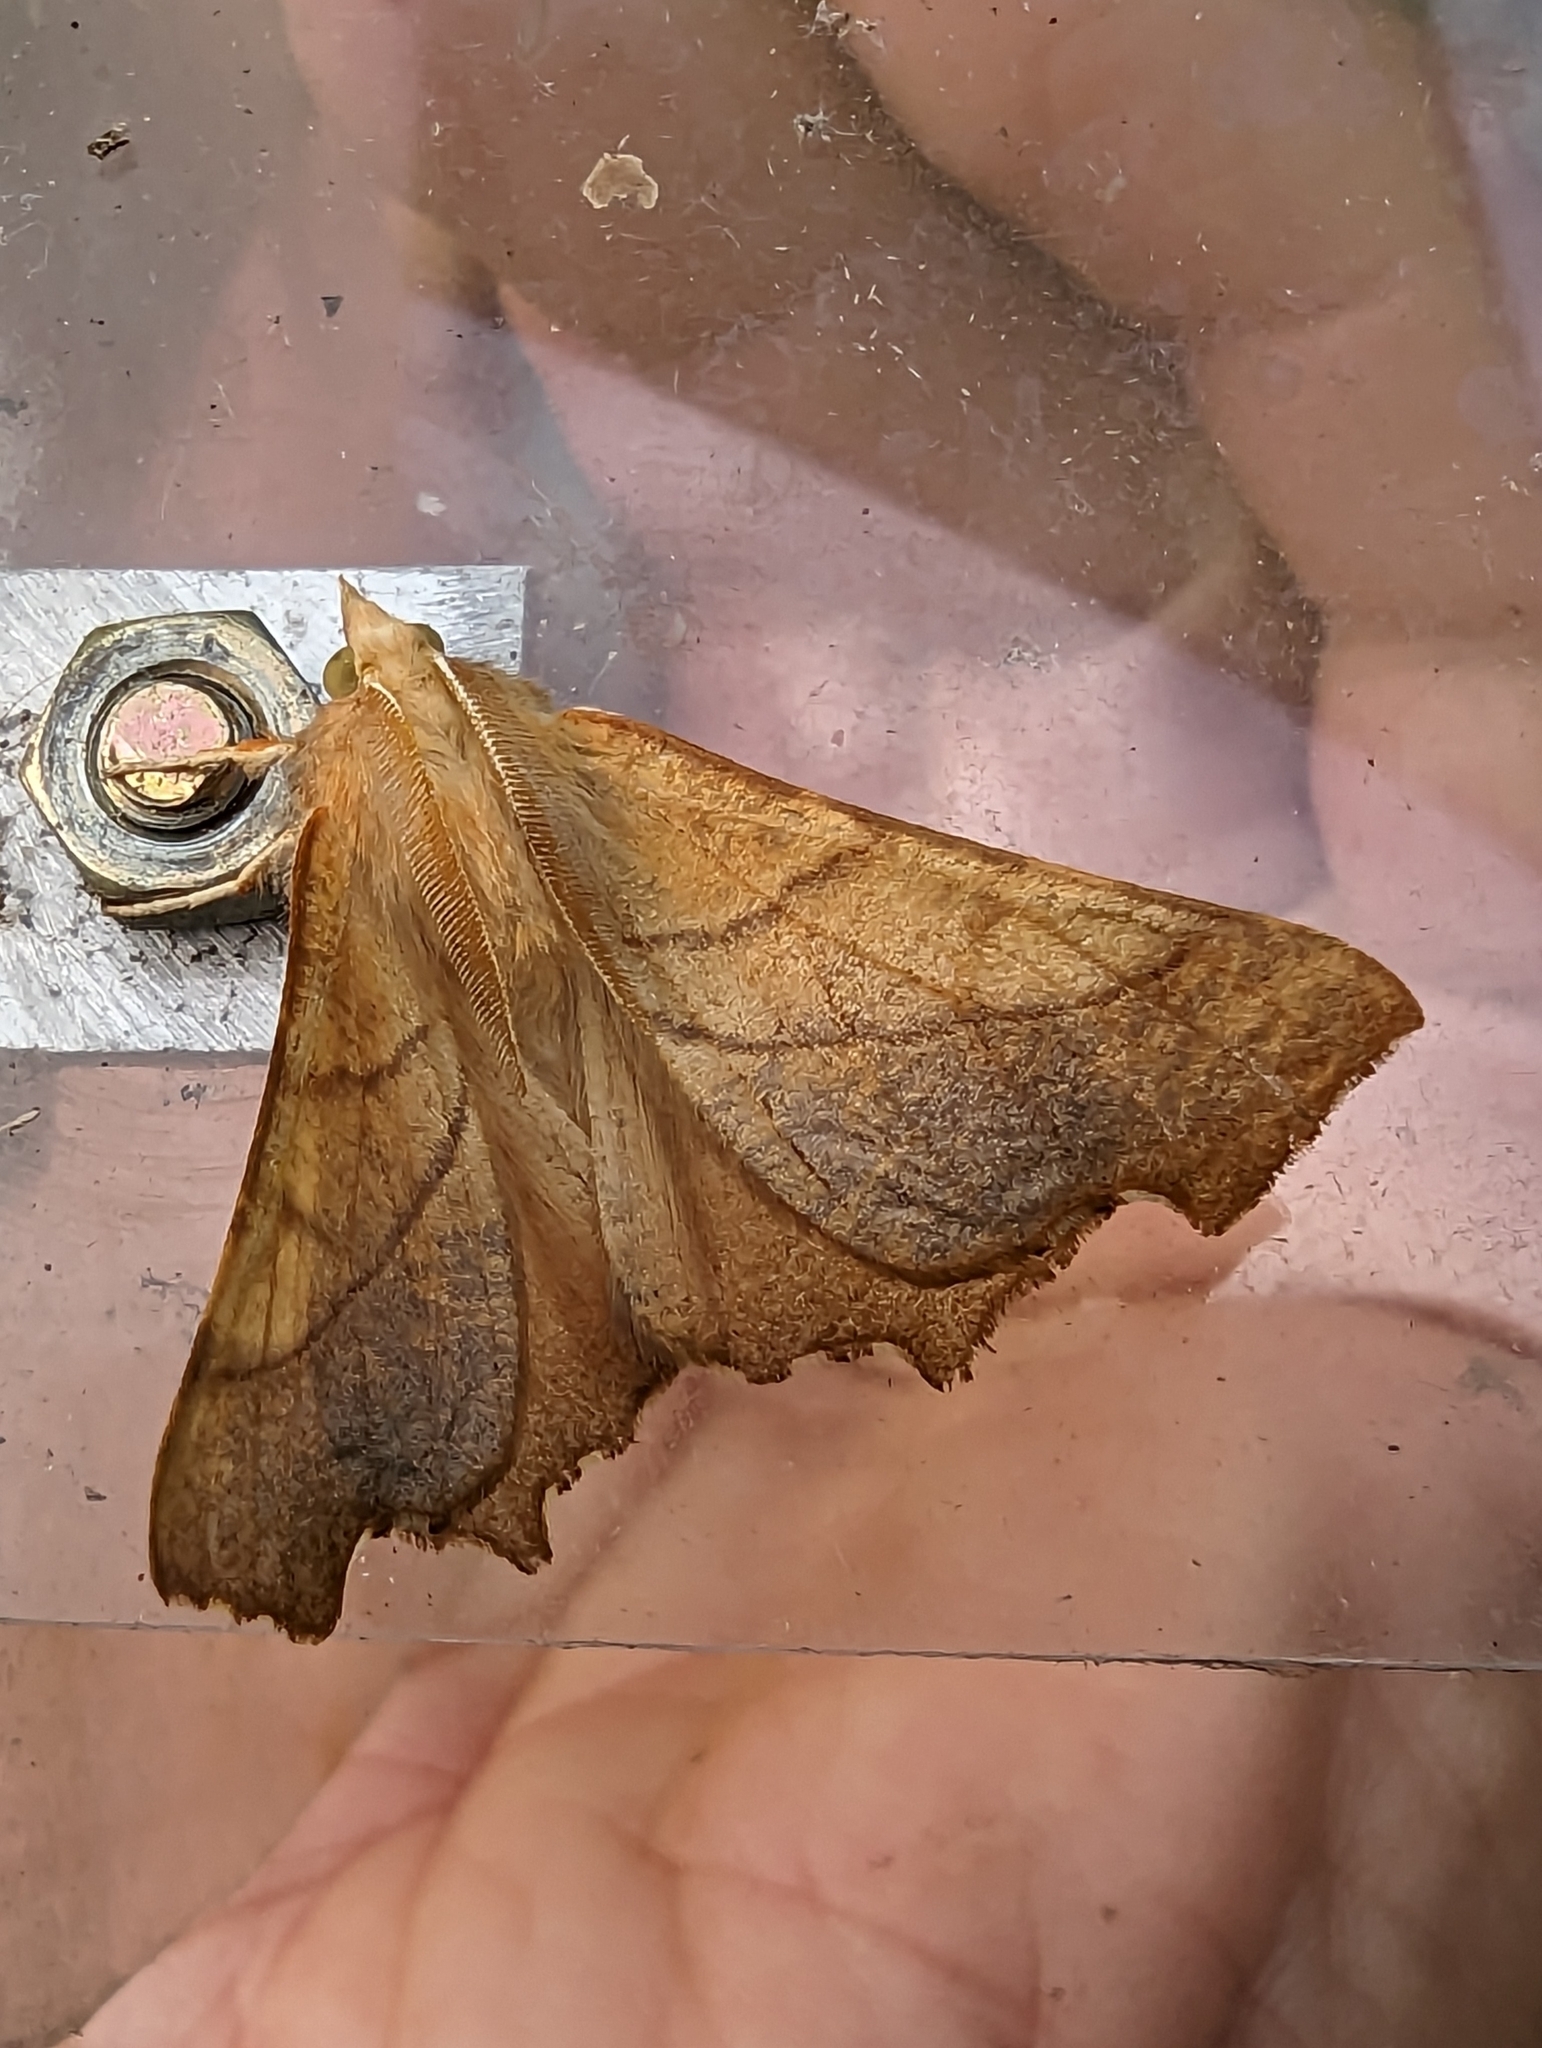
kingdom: Animalia
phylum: Arthropoda
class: Insecta
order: Lepidoptera
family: Geometridae
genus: Ennomos
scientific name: Ennomos fuscantaria
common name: Dusky thorn
